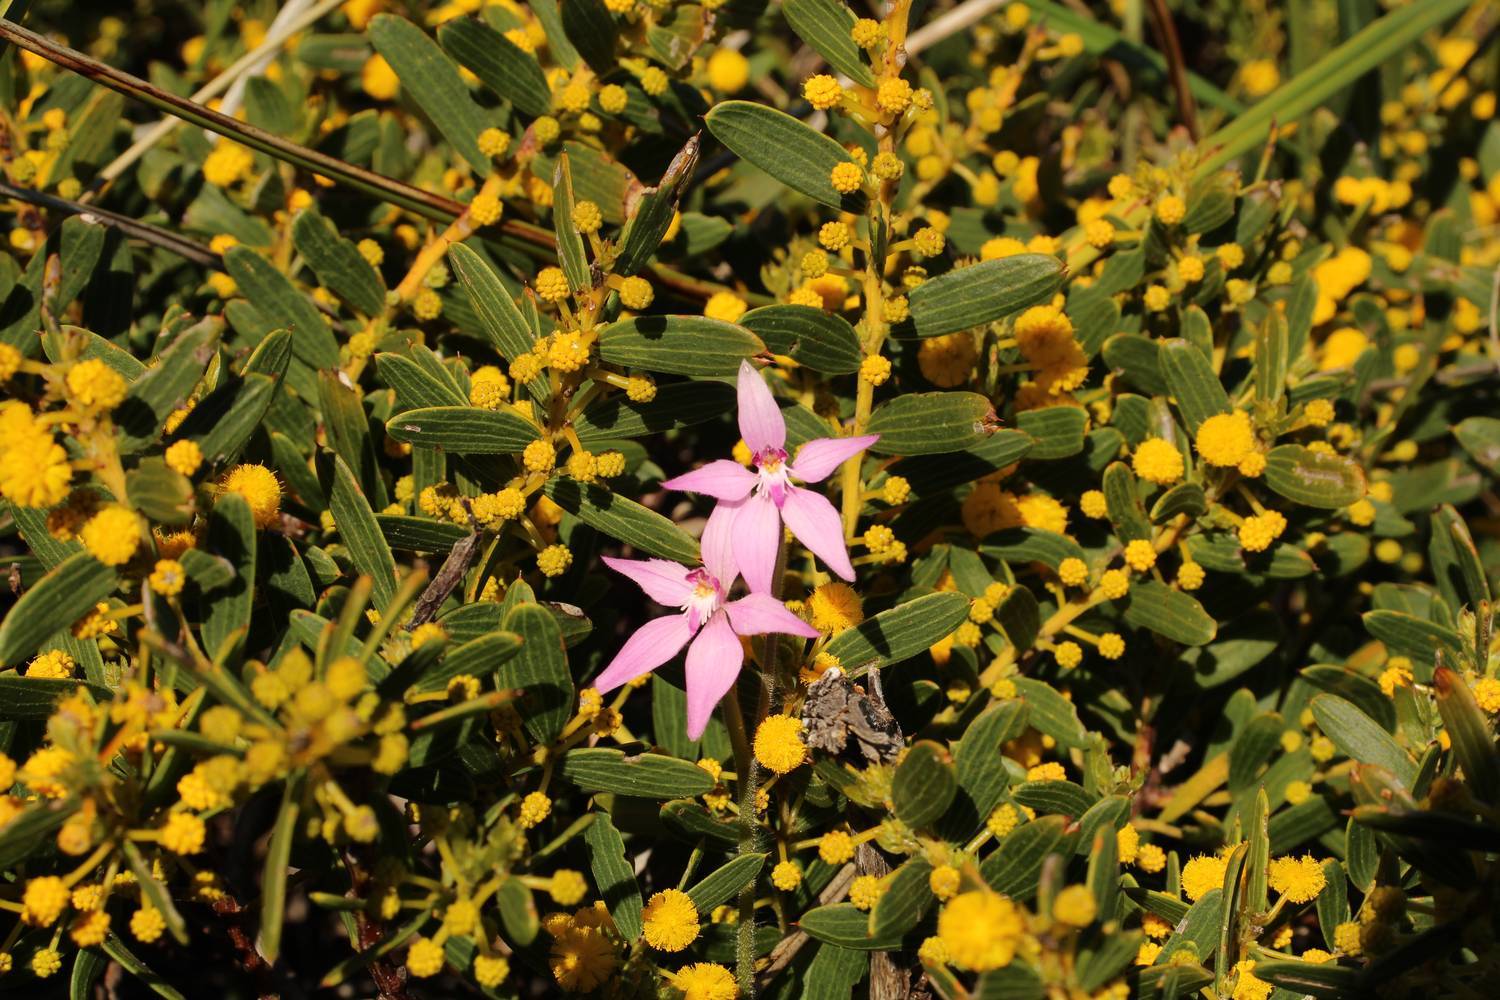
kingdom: Plantae
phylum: Tracheophyta
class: Liliopsida
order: Asparagales
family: Orchidaceae
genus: Caladenia
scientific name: Caladenia latifolia
